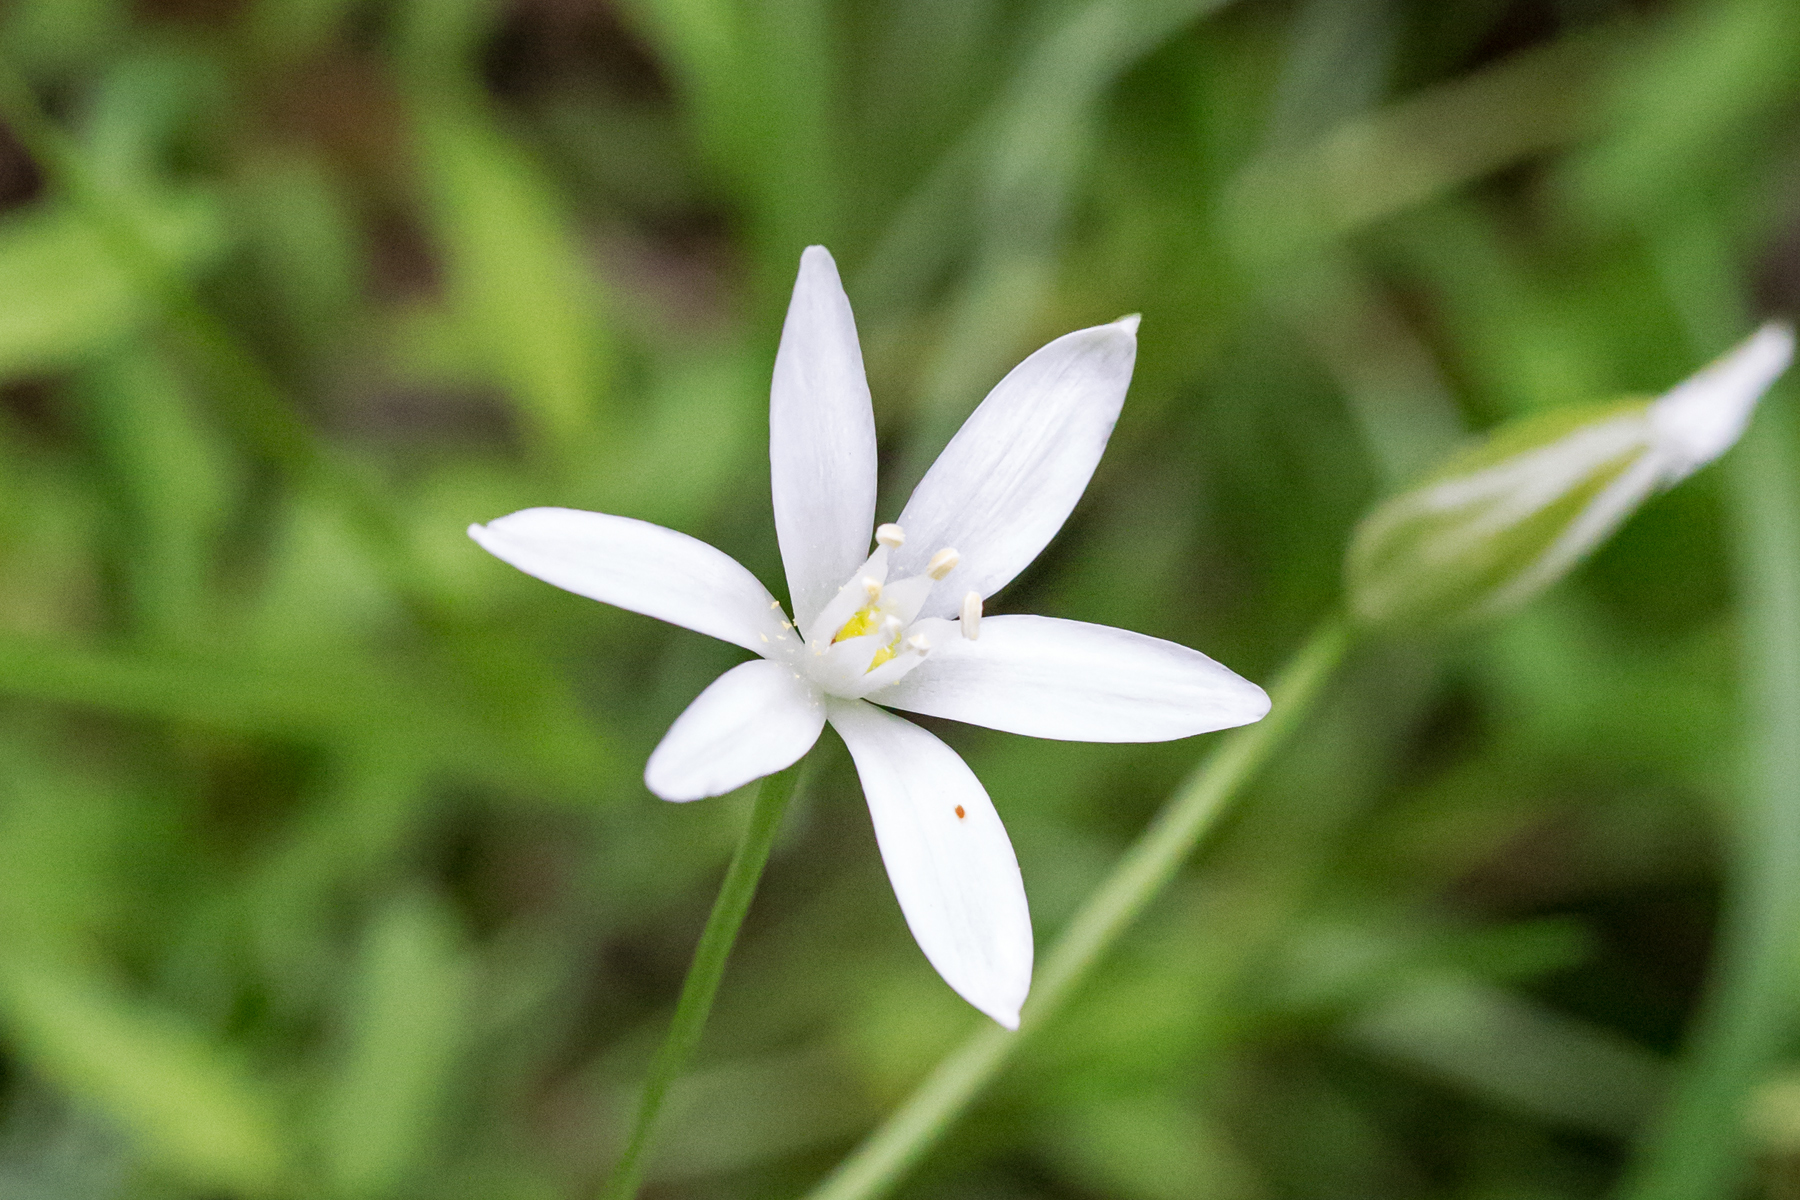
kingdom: Plantae
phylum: Tracheophyta
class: Liliopsida
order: Asparagales
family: Asparagaceae
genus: Ornithogalum
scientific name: Ornithogalum umbellatum
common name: Garden star-of-bethlehem
